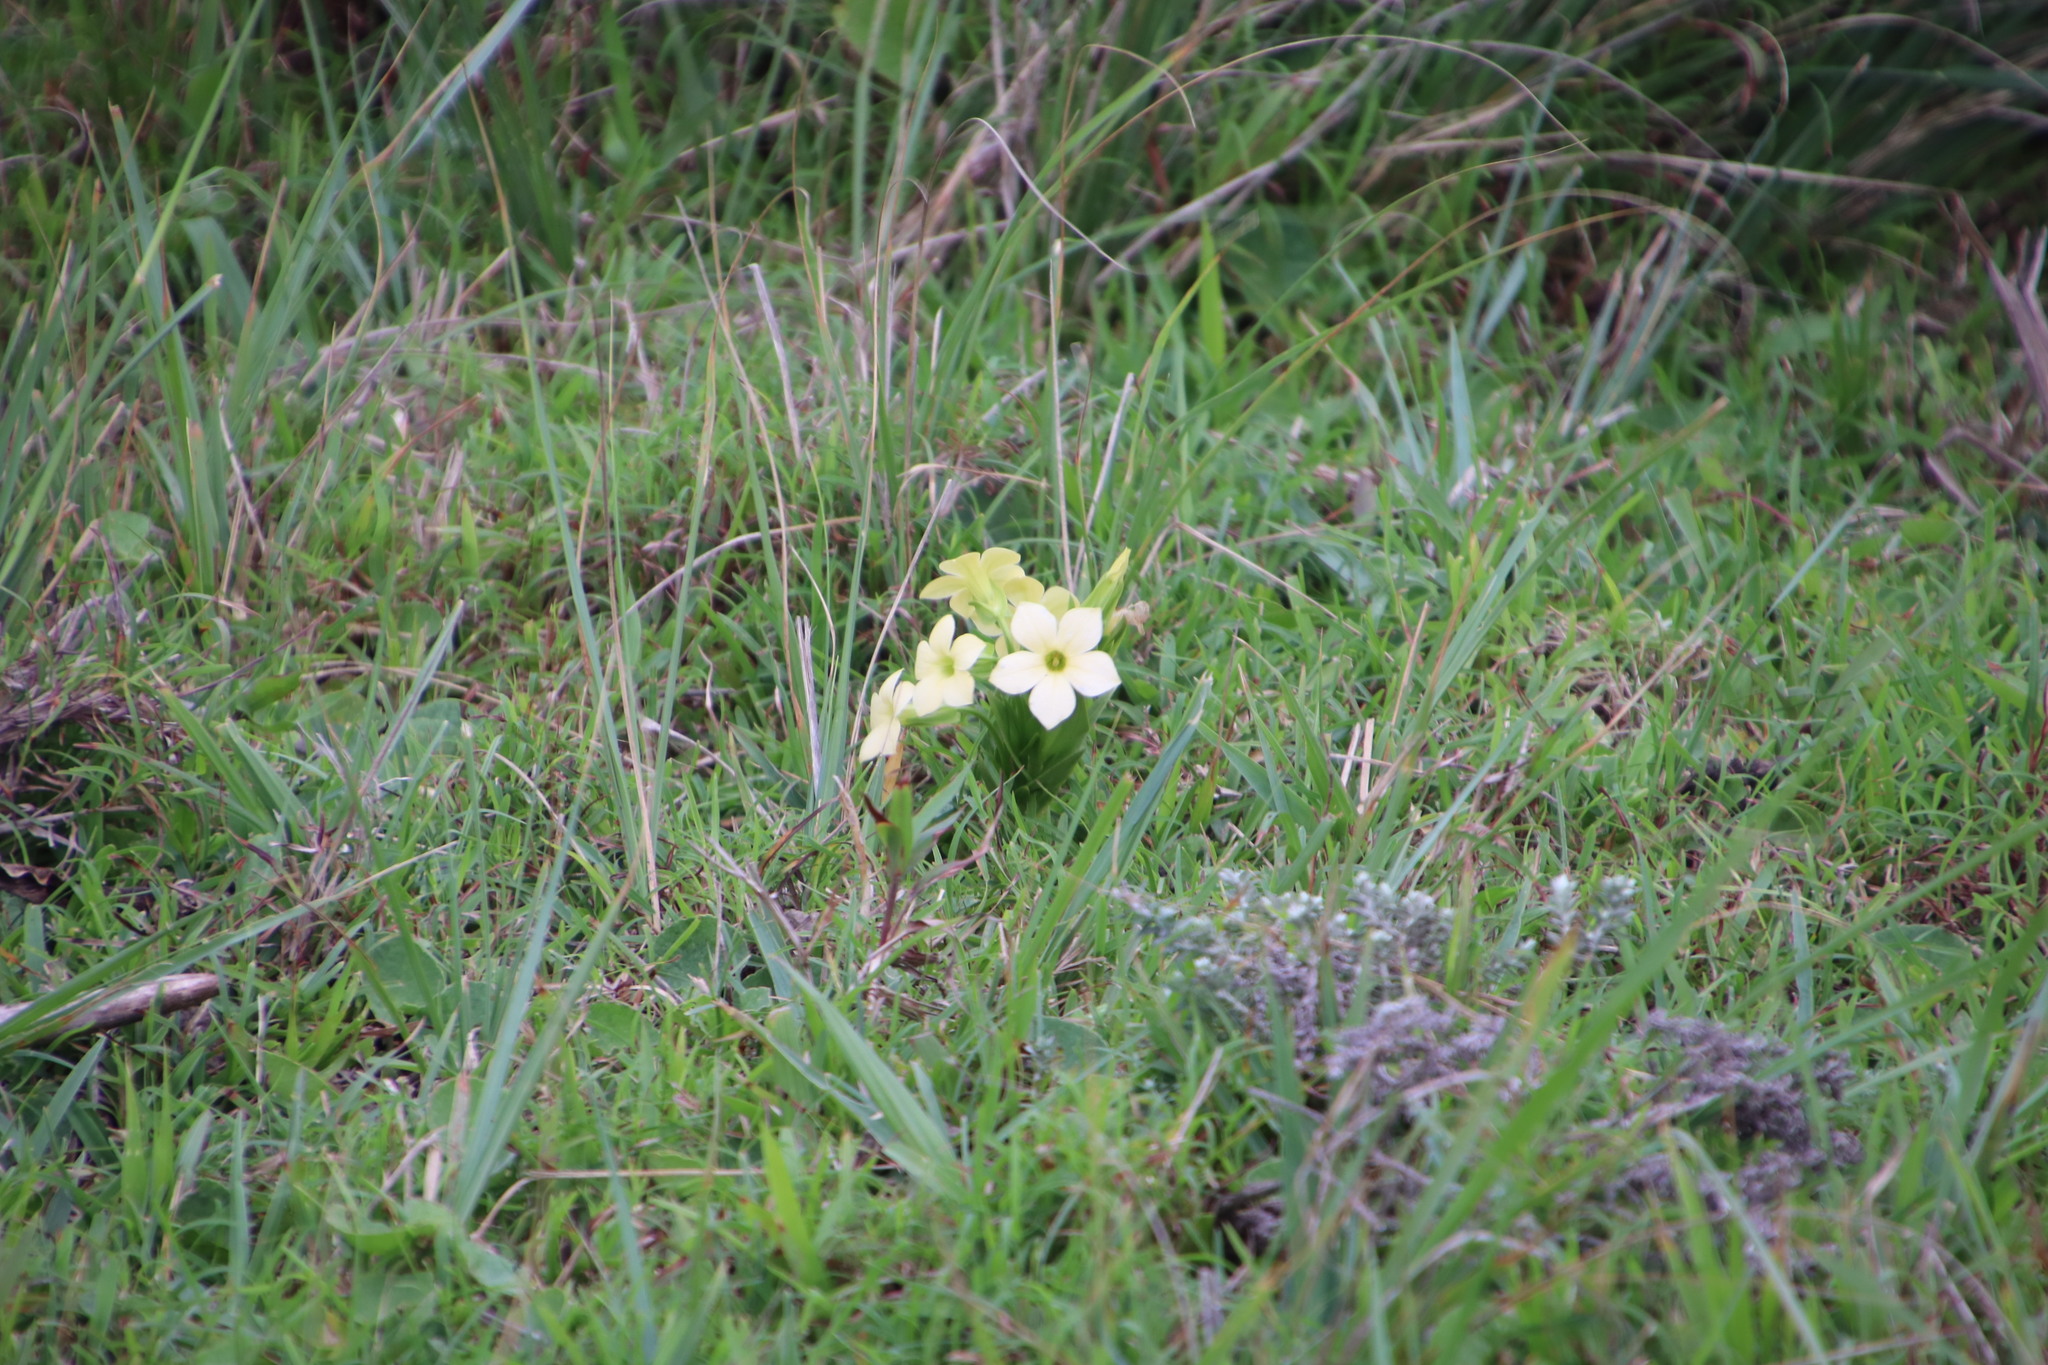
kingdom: Plantae
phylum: Tracheophyta
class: Magnoliopsida
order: Gentianales
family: Gentianaceae
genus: Exochaenium
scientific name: Exochaenium grande
